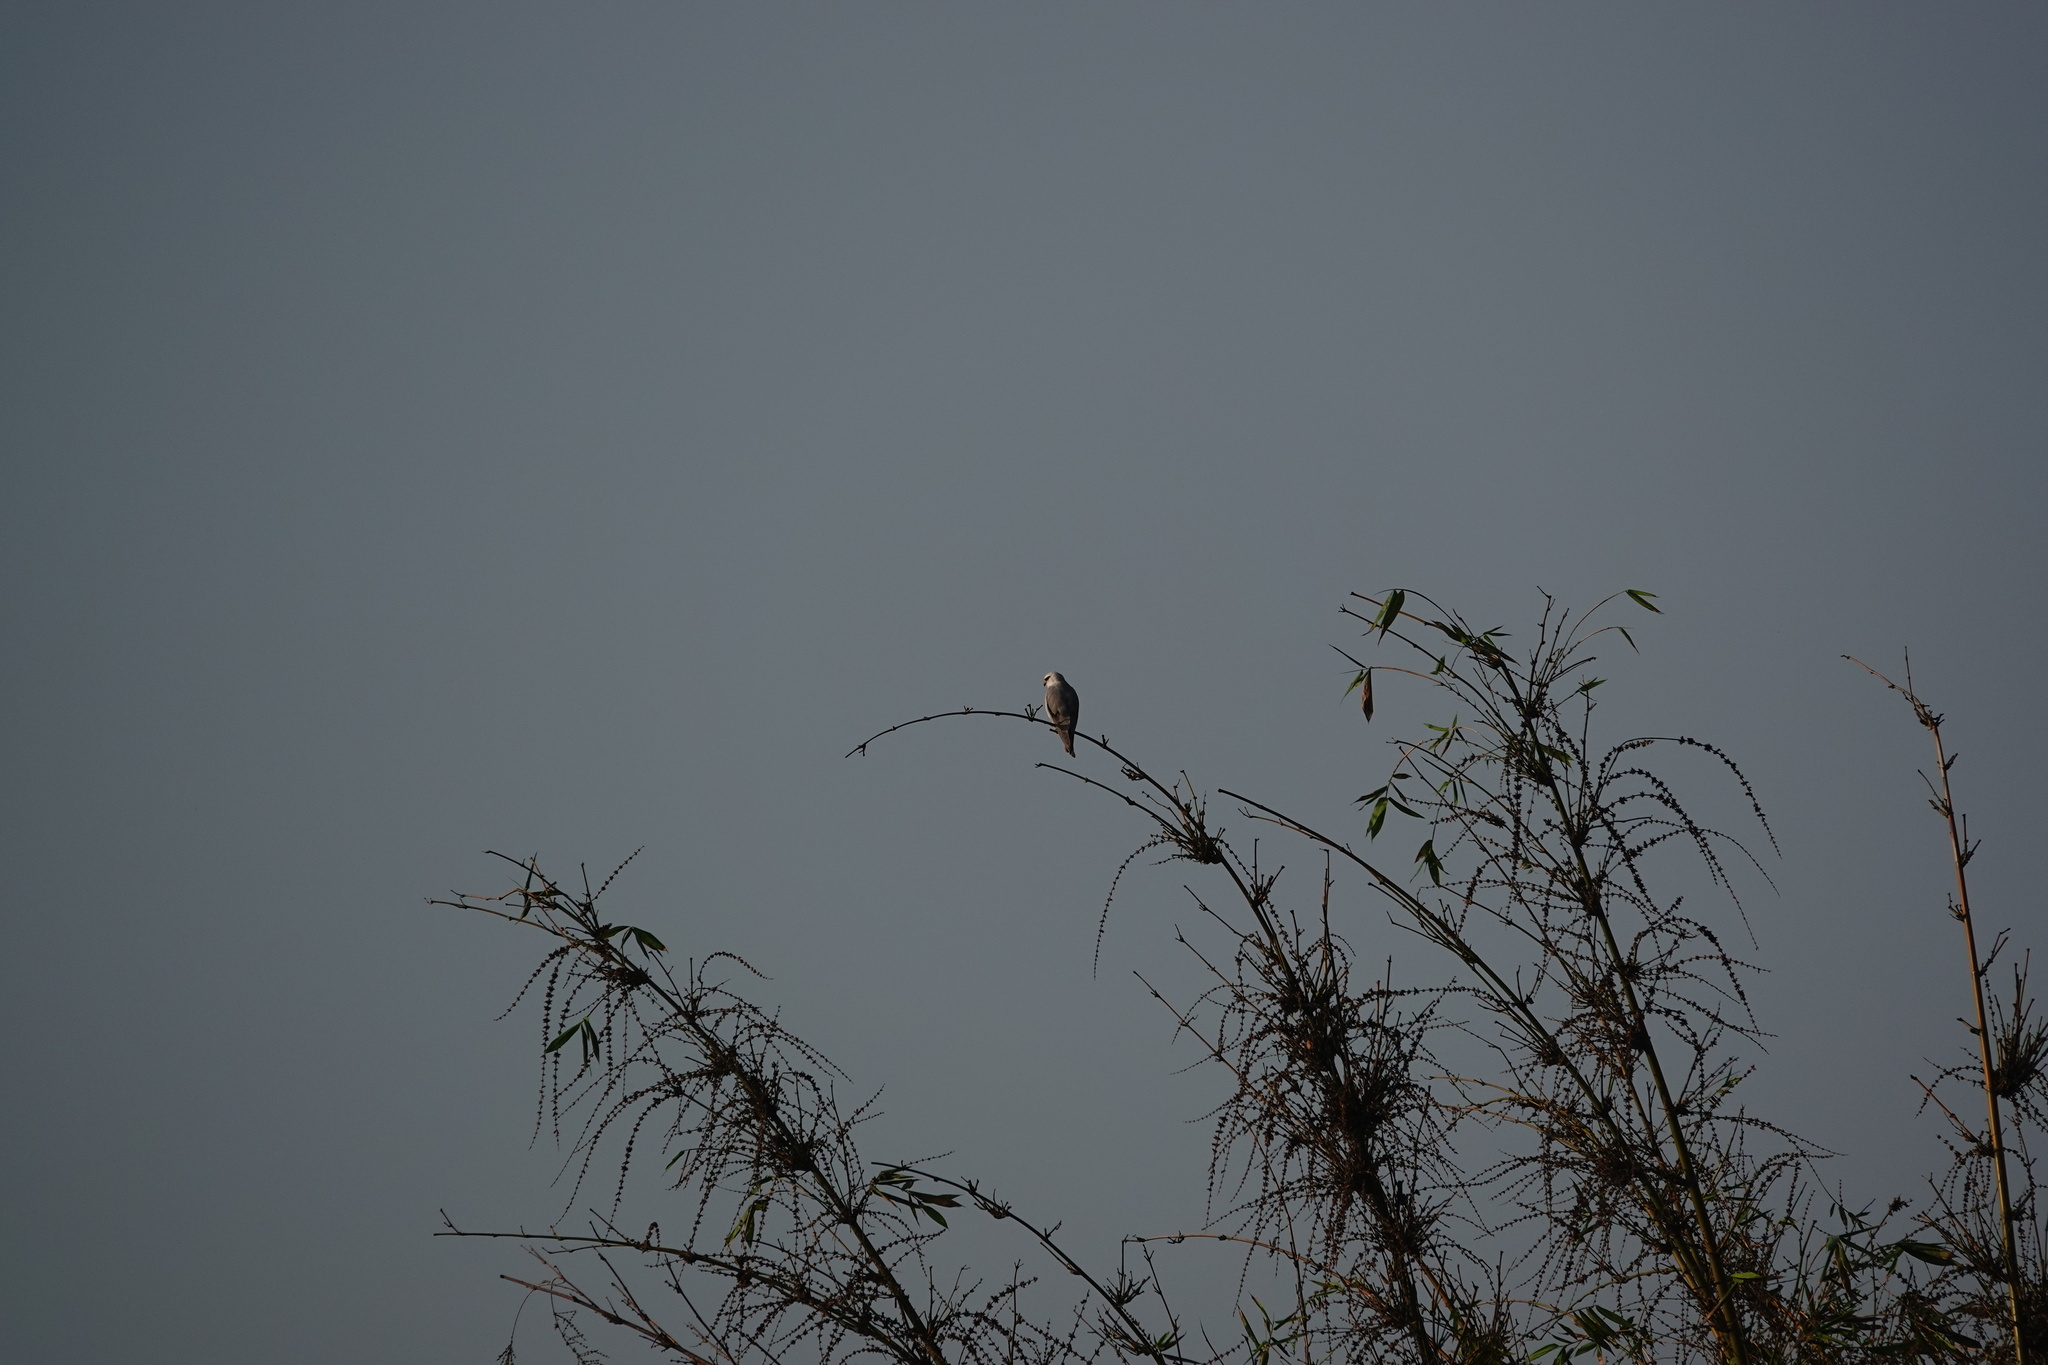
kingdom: Animalia
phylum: Chordata
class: Aves
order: Accipitriformes
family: Accipitridae
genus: Elanus
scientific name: Elanus caeruleus
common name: Black-winged kite
